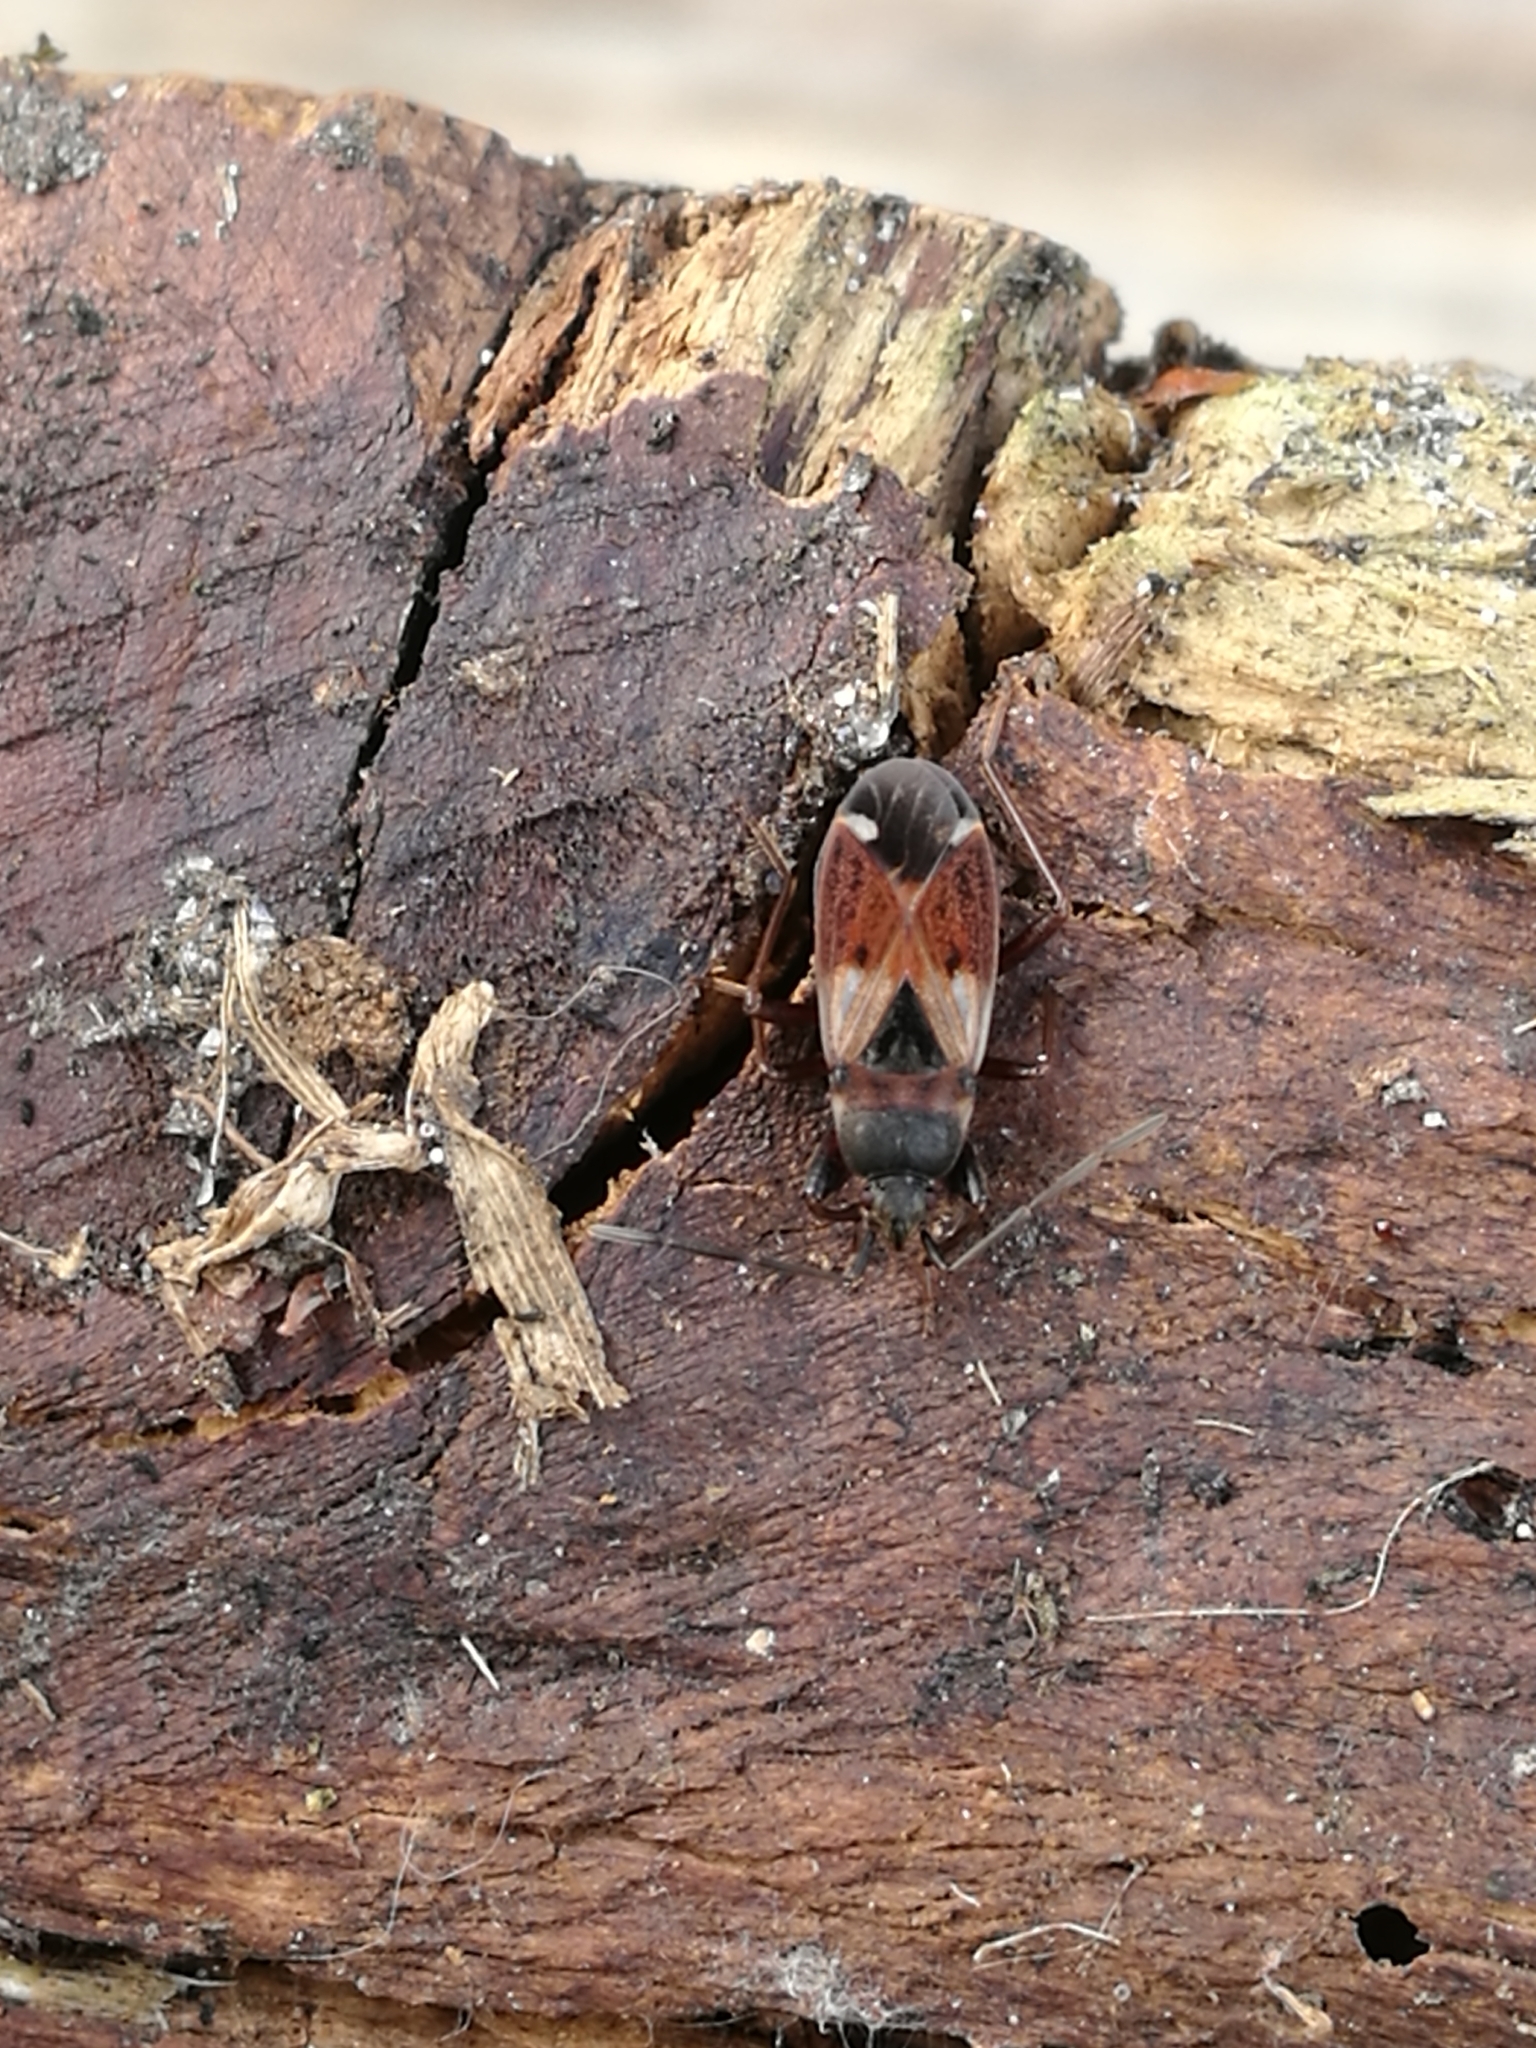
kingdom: Animalia
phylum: Arthropoda
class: Insecta
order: Hemiptera
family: Rhyparochromidae
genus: Eremocoris
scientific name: Eremocoris abietis
